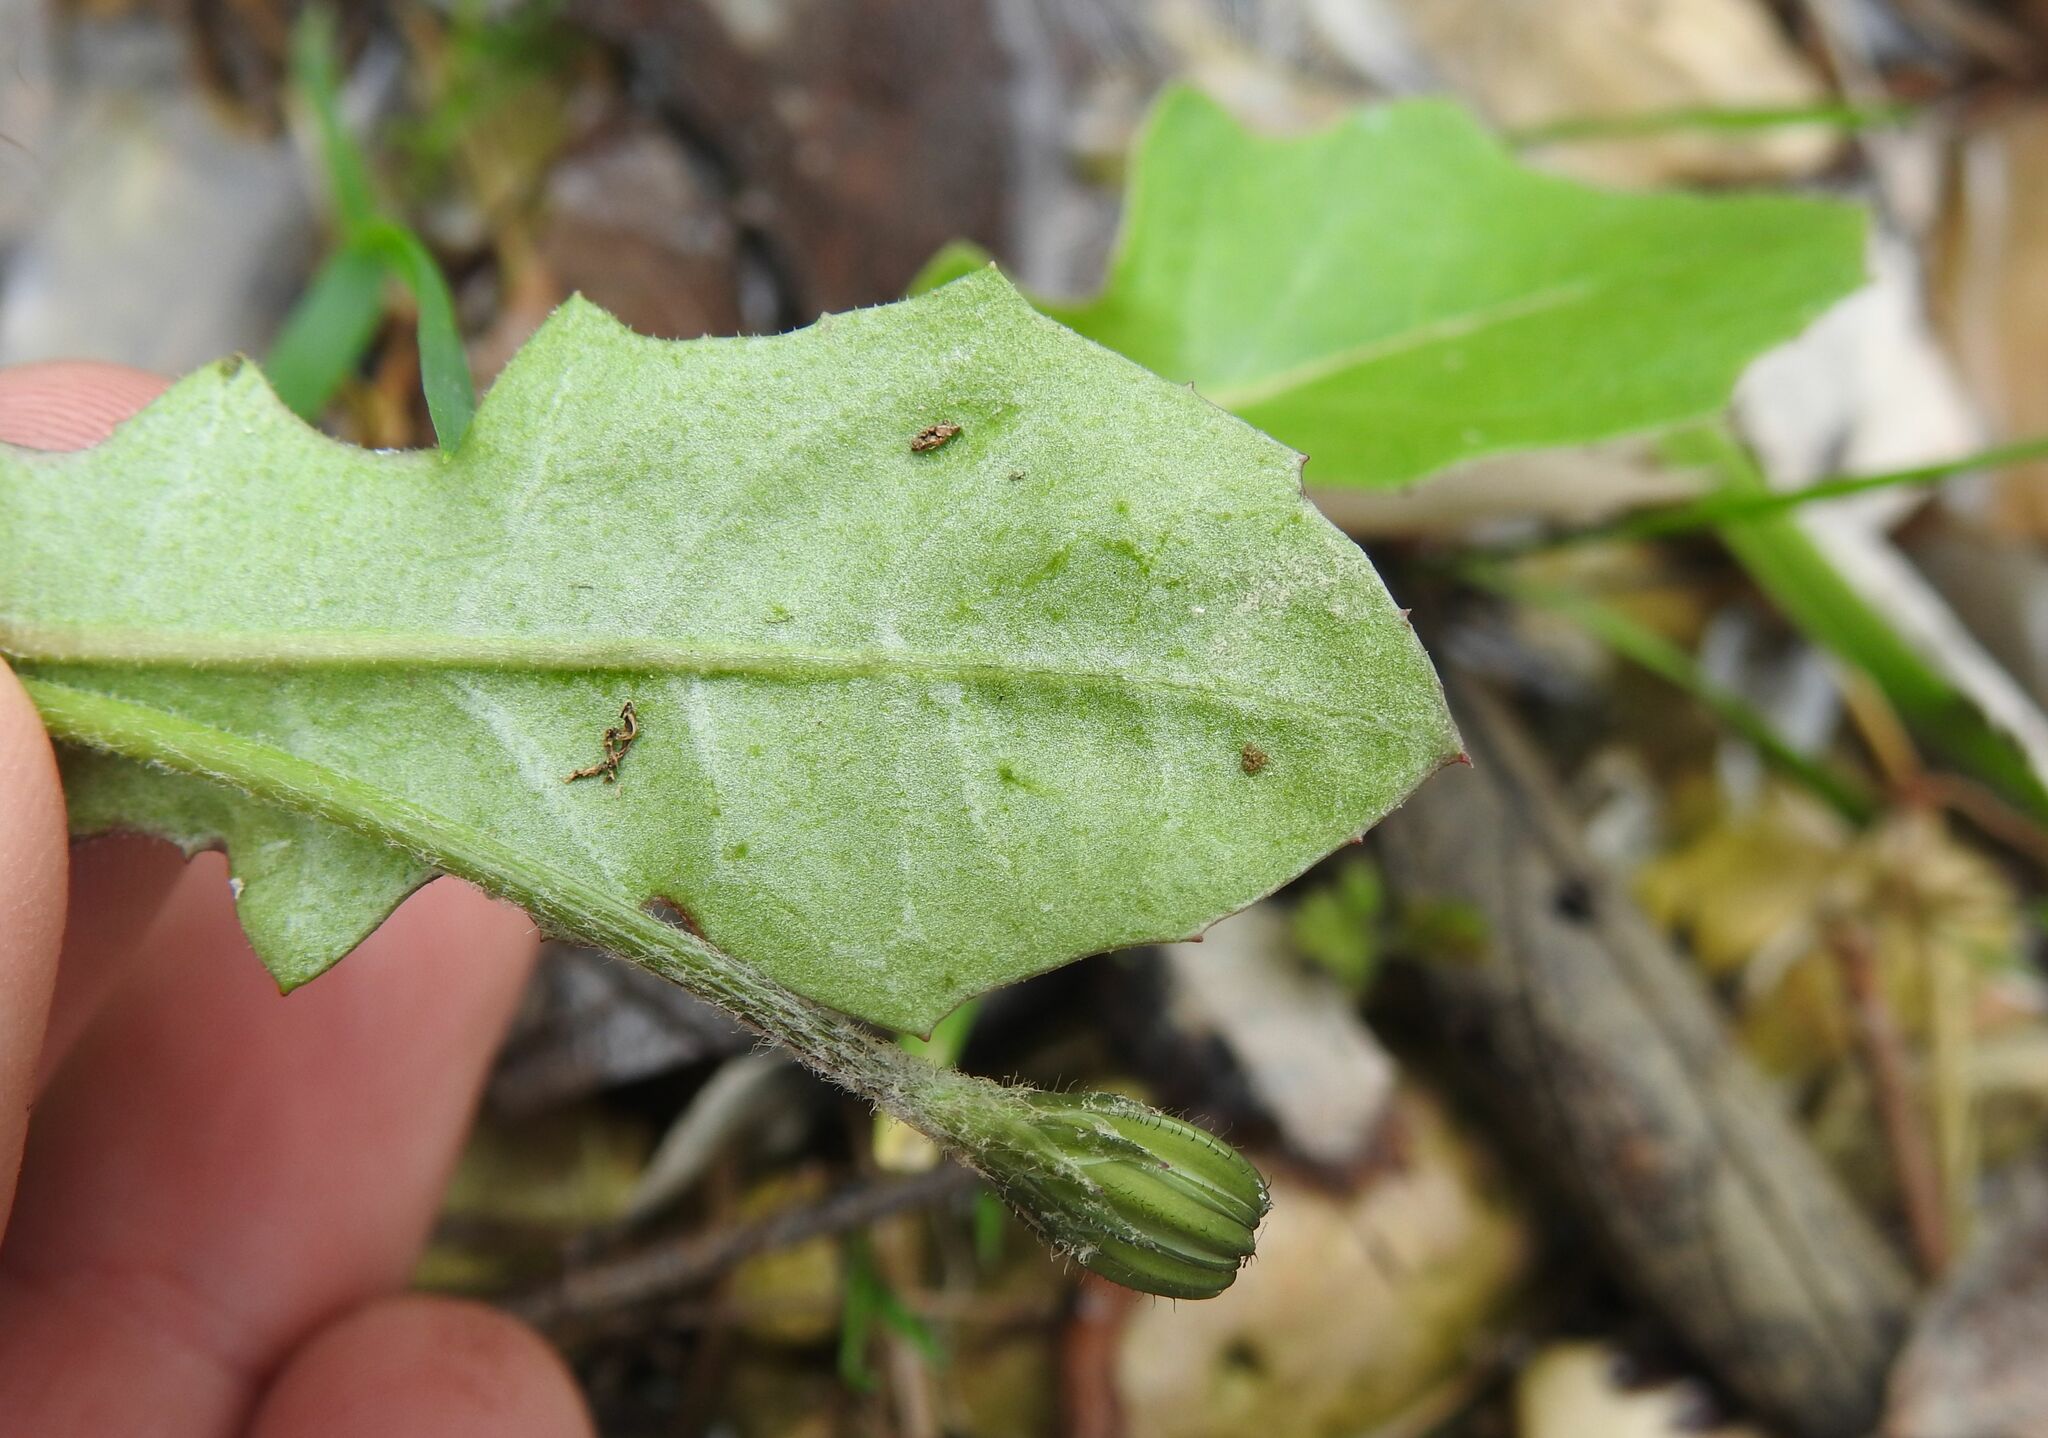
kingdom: Plantae
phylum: Tracheophyta
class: Magnoliopsida
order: Asterales
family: Asteraceae
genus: Crepis
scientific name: Crepis sancta
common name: Hawk's-beard
